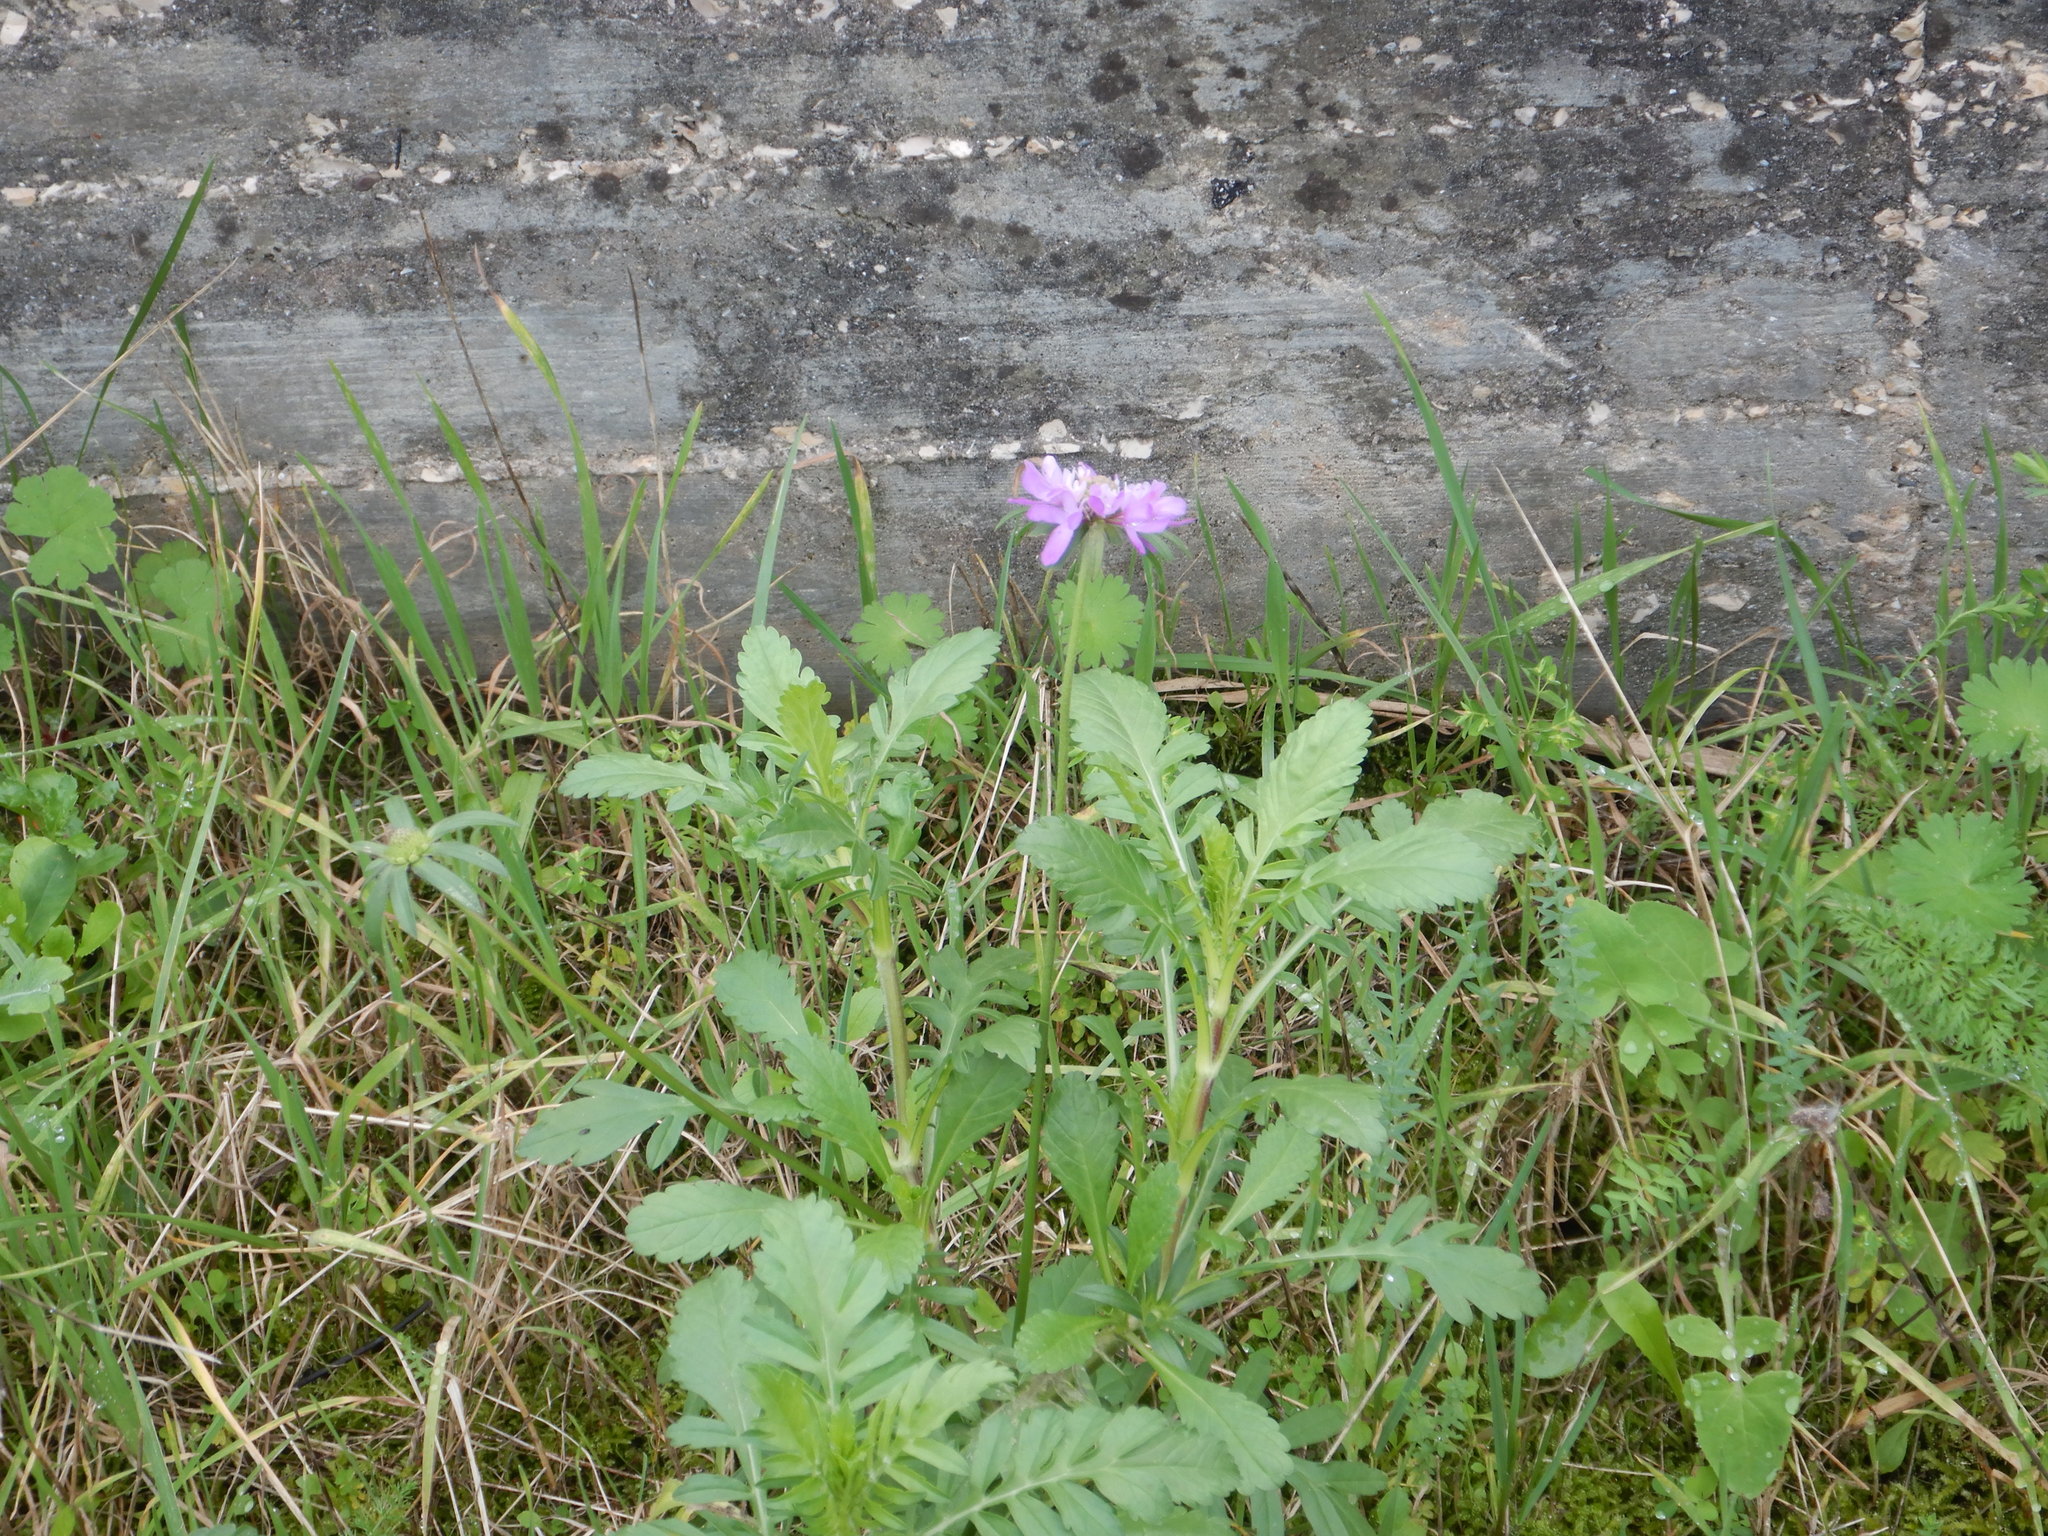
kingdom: Plantae
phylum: Tracheophyta
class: Magnoliopsida
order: Dipsacales
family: Caprifoliaceae
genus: Sixalix
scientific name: Sixalix atropurpurea
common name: Sweet scabious
